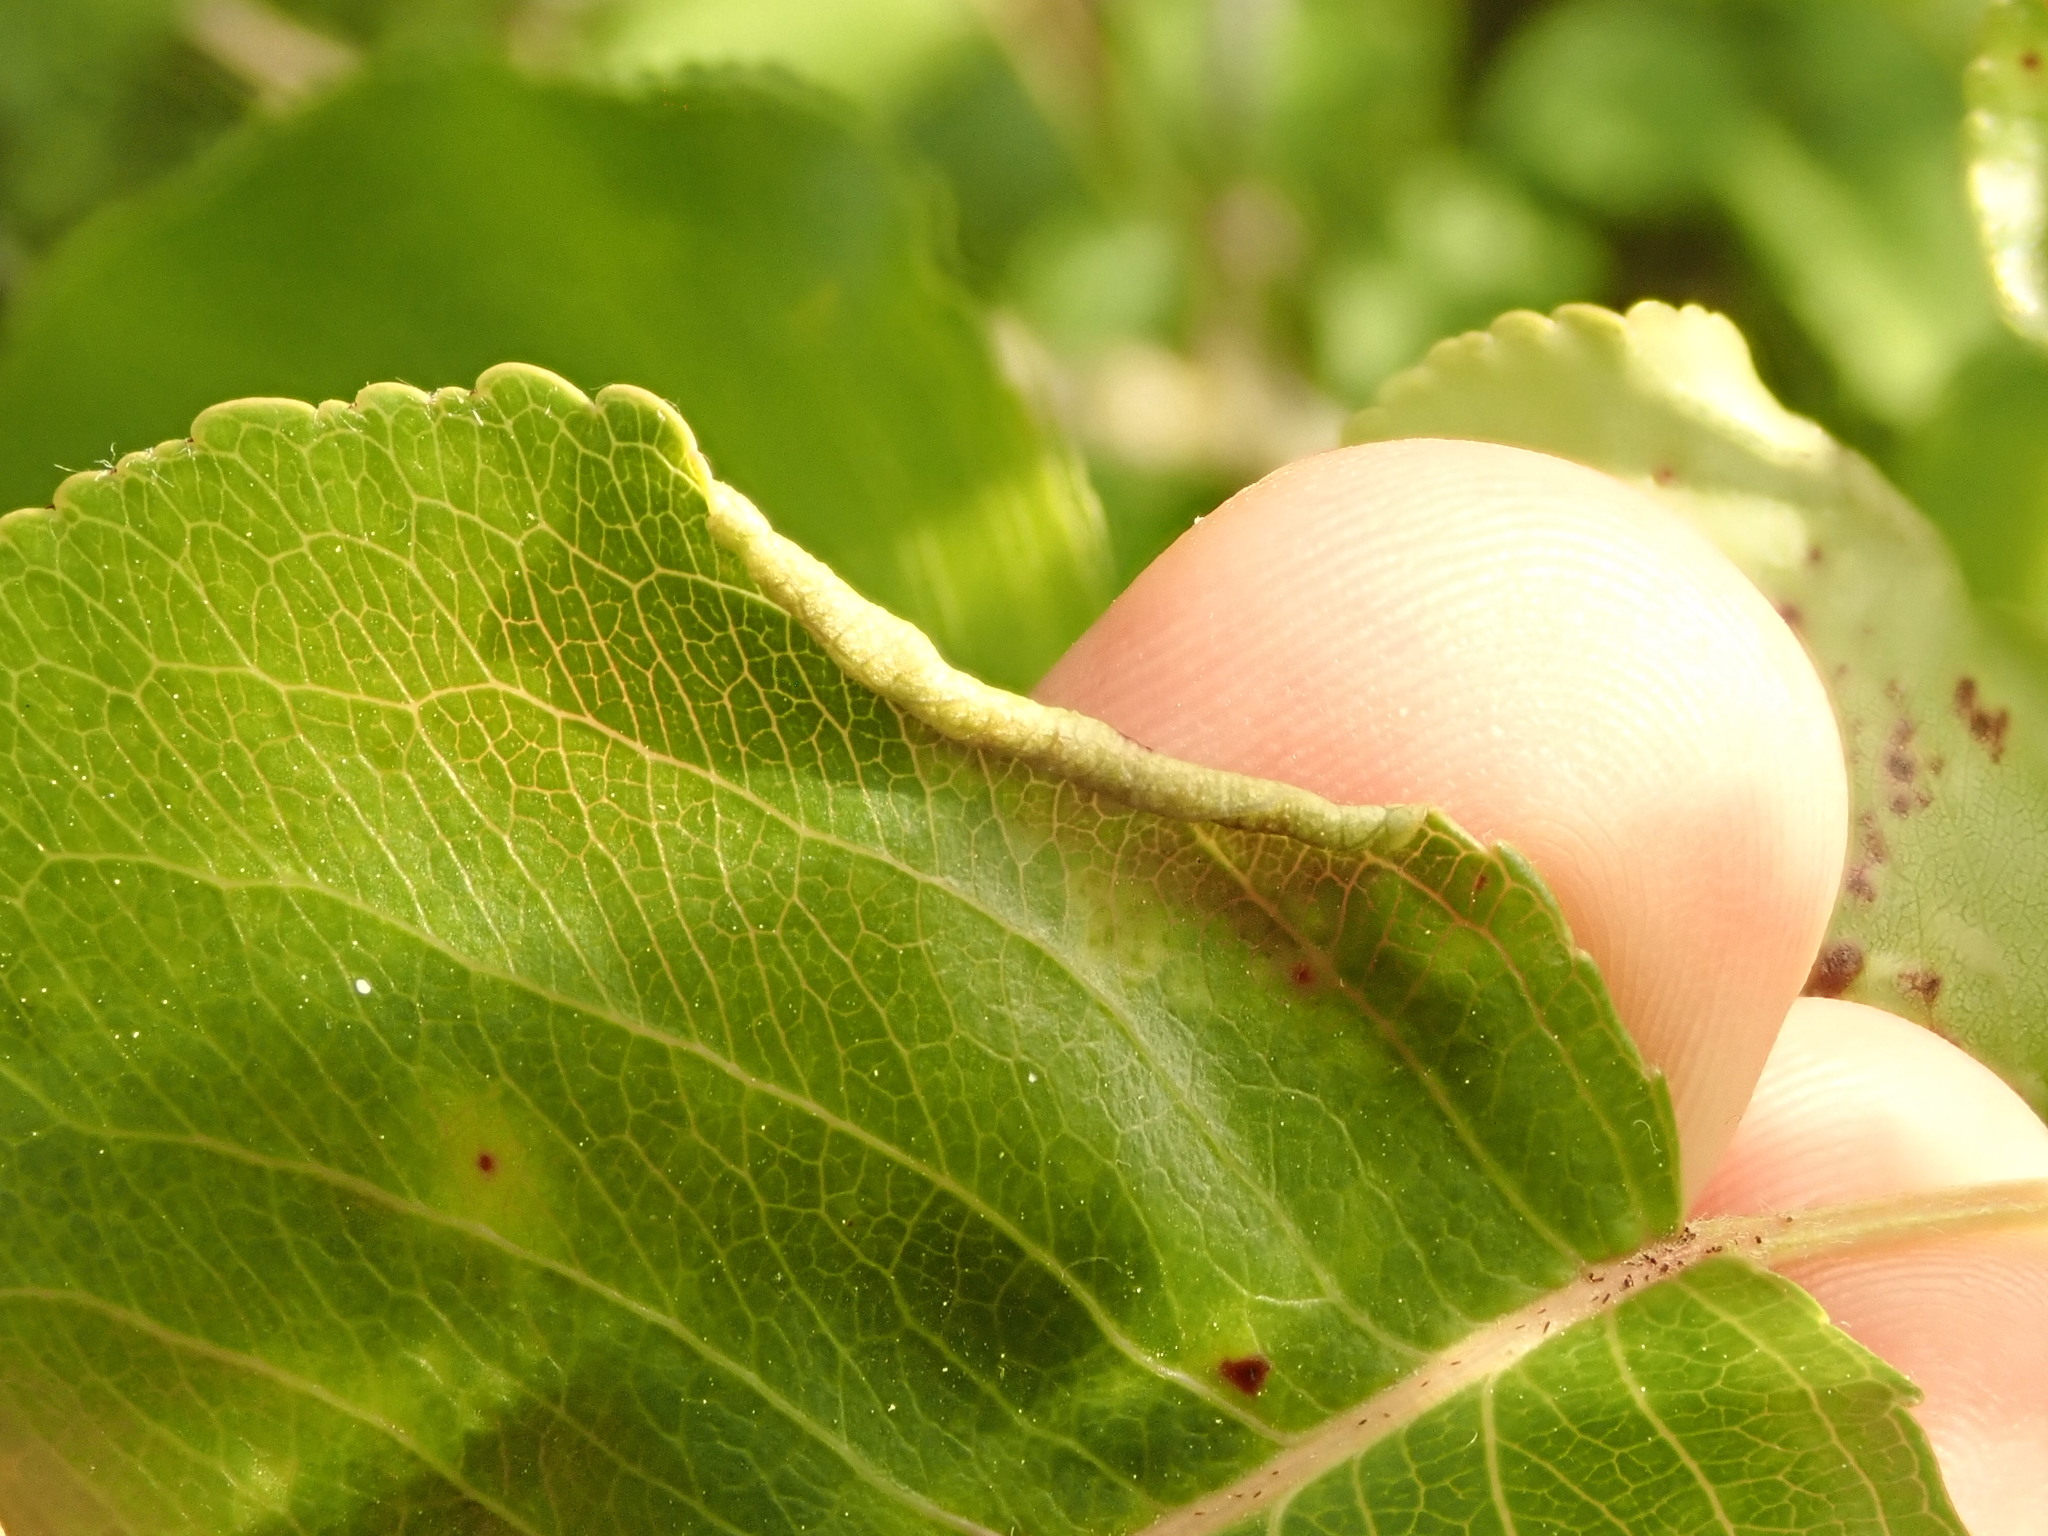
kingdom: Animalia
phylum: Arthropoda
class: Arachnida
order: Trombidiformes
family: Eriophyidae
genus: Eriophyes
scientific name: Eriophyes marginemtorquens
